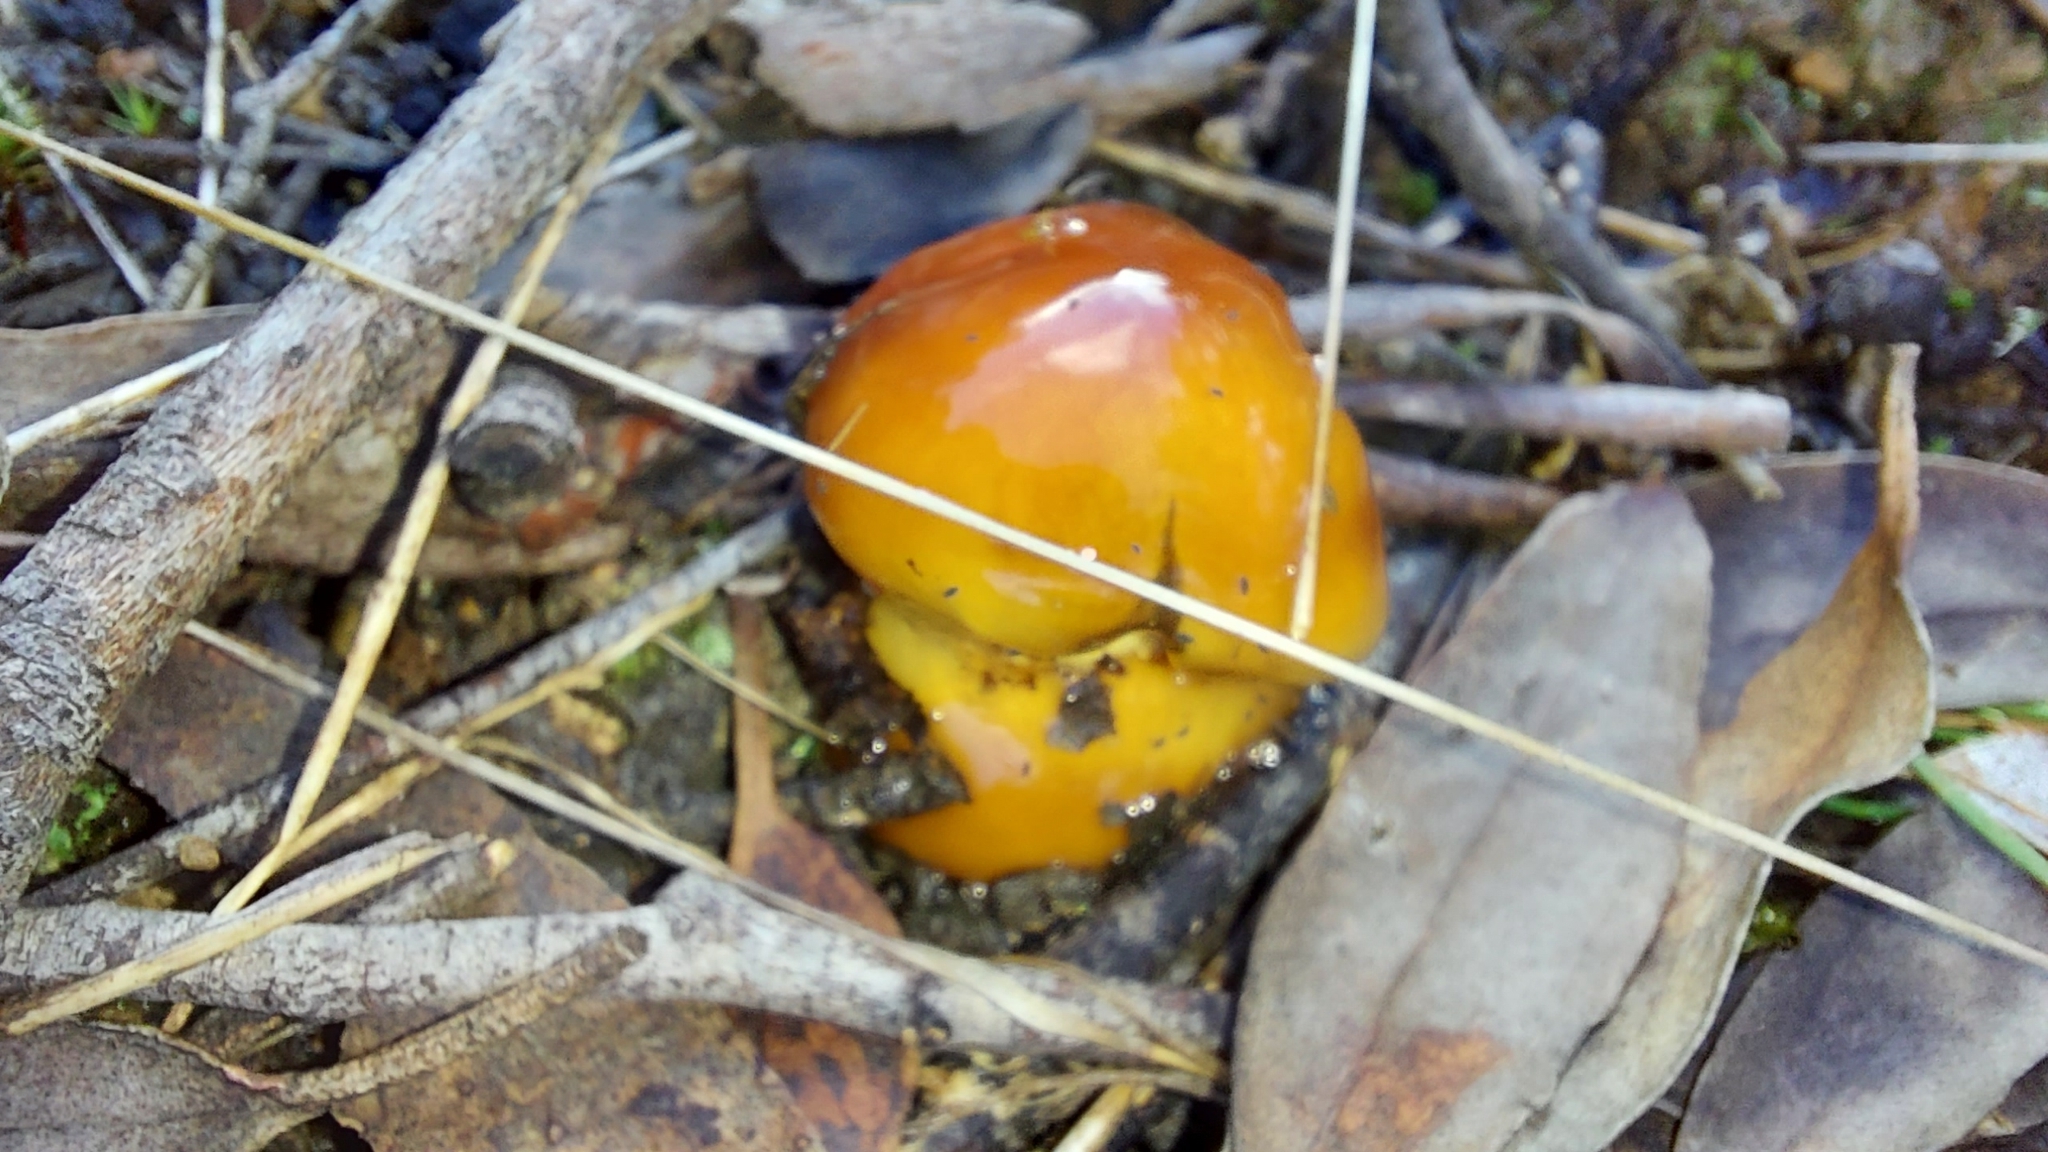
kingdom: Fungi
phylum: Basidiomycota
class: Agaricomycetes
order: Agaricales
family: Cortinariaceae
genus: Cortinarius
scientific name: Cortinarius sinapicolor
